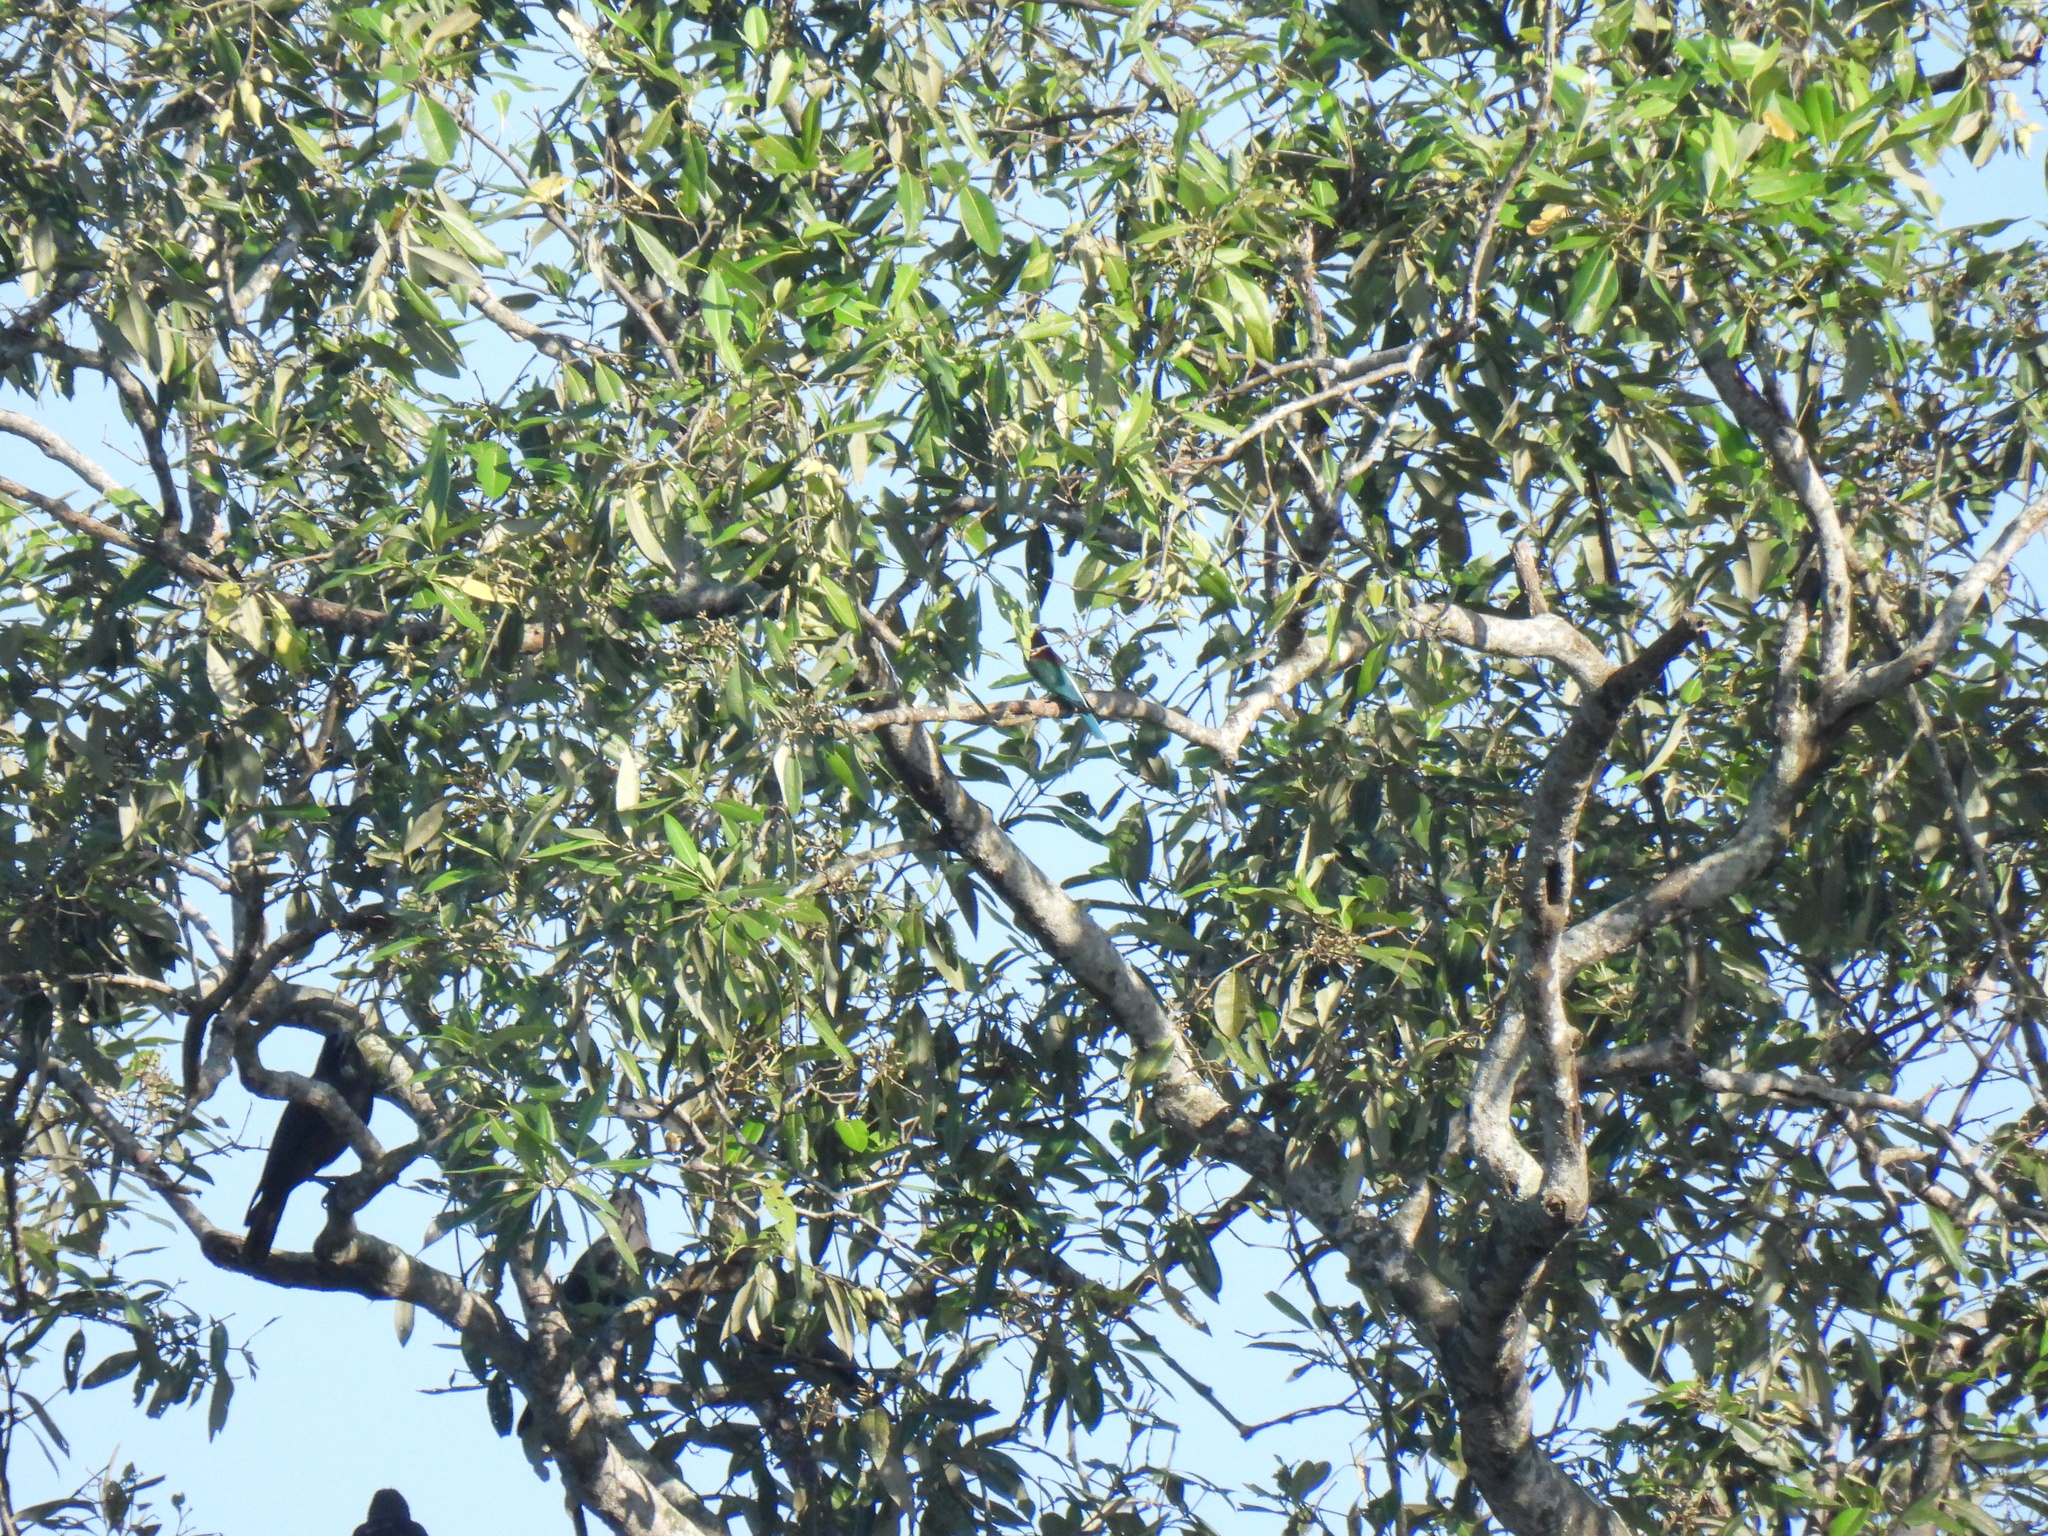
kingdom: Animalia
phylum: Chordata
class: Aves
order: Coraciiformes
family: Meropidae
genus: Merops
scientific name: Merops viridis
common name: Blue-throated bee-eater
